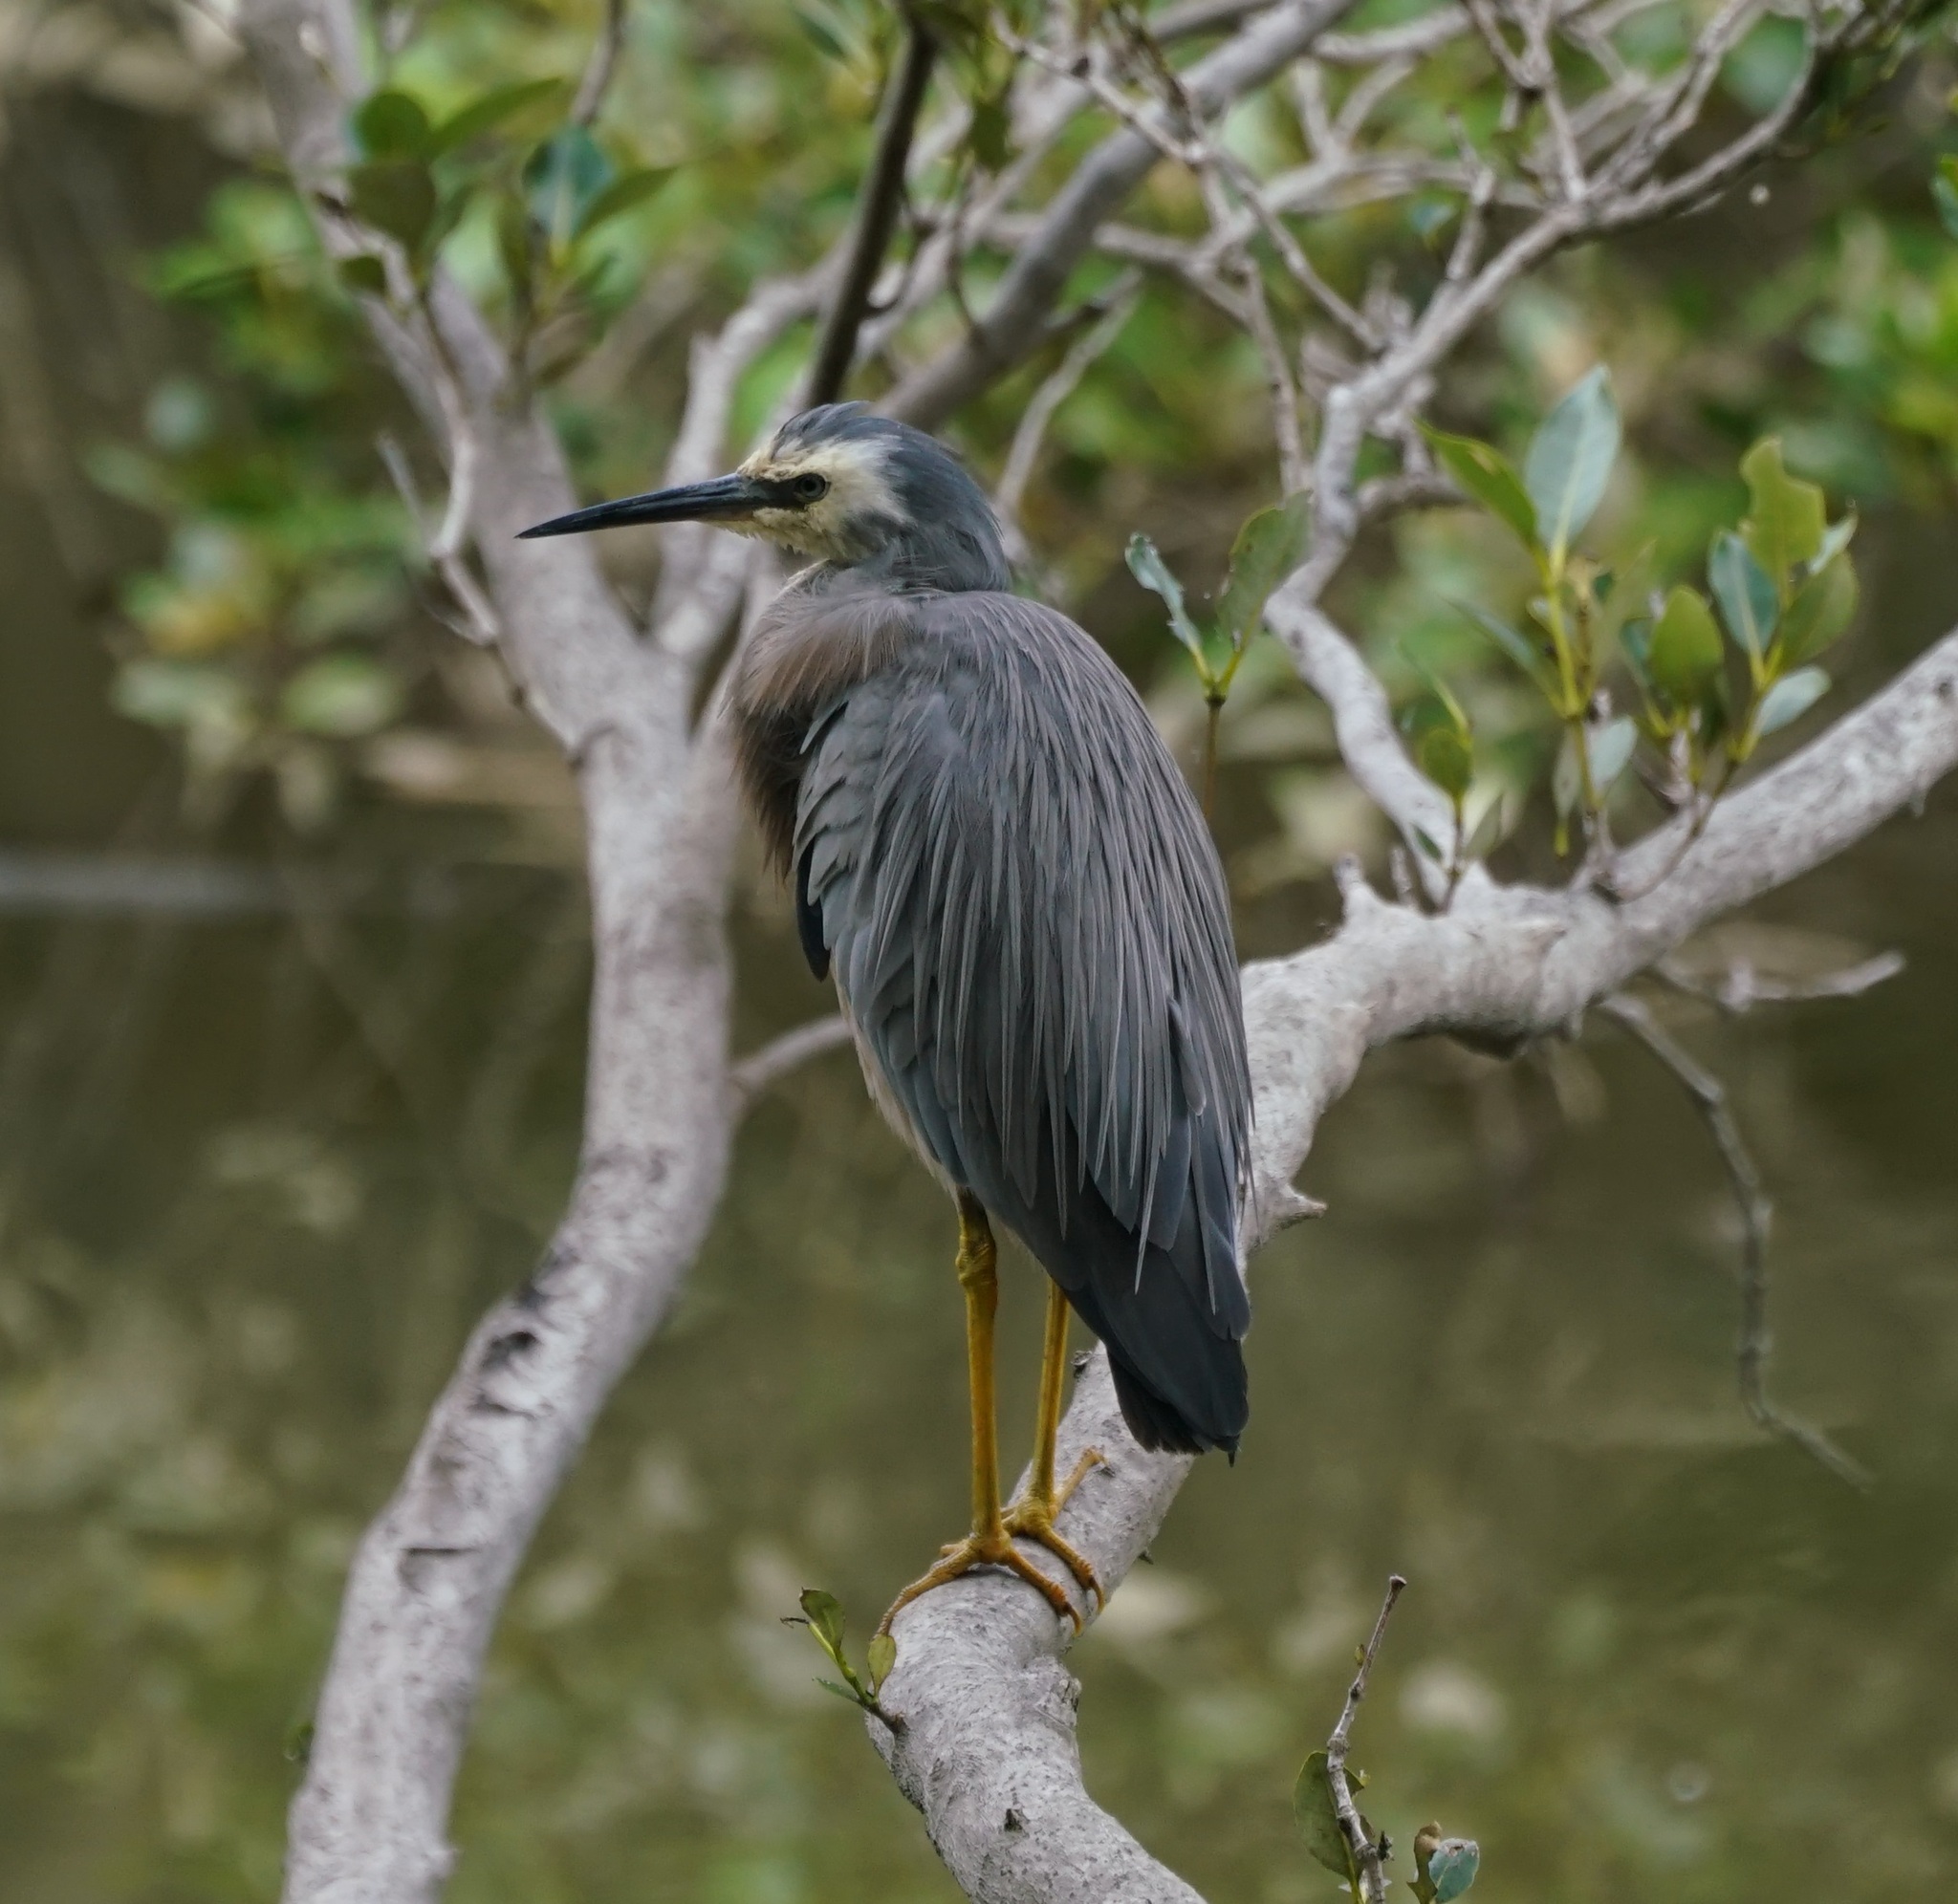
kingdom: Animalia
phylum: Chordata
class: Aves
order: Pelecaniformes
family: Ardeidae
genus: Egretta
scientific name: Egretta novaehollandiae
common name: White-faced heron
